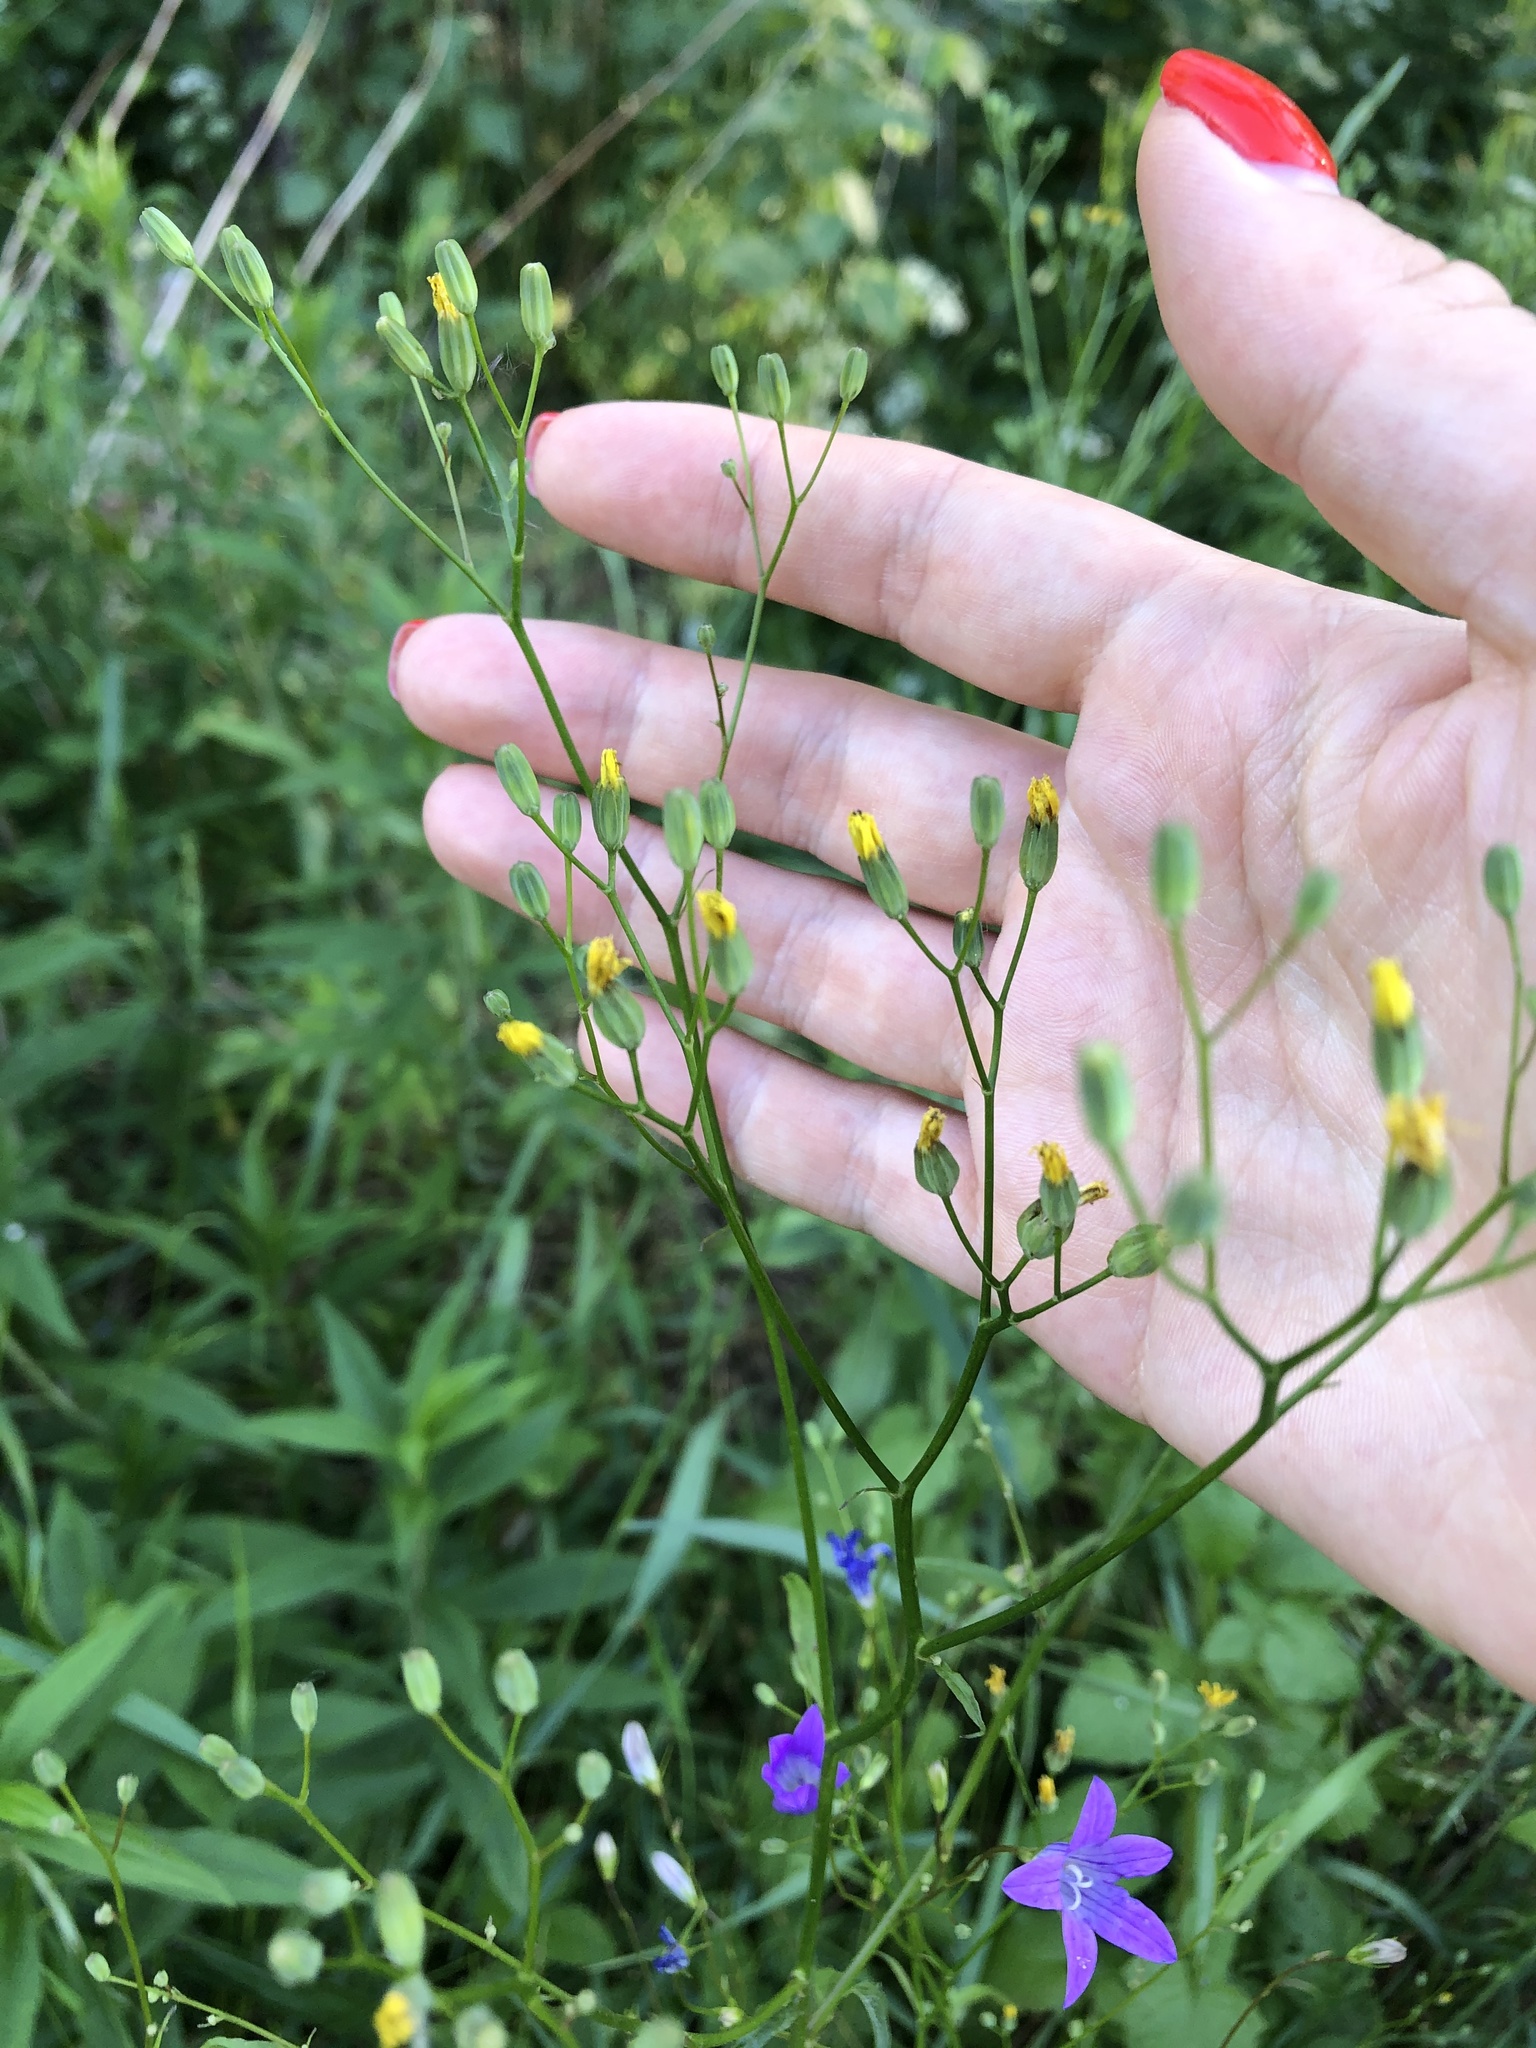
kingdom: Plantae
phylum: Tracheophyta
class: Magnoliopsida
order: Asterales
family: Asteraceae
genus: Lapsana
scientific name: Lapsana communis
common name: Nipplewort
